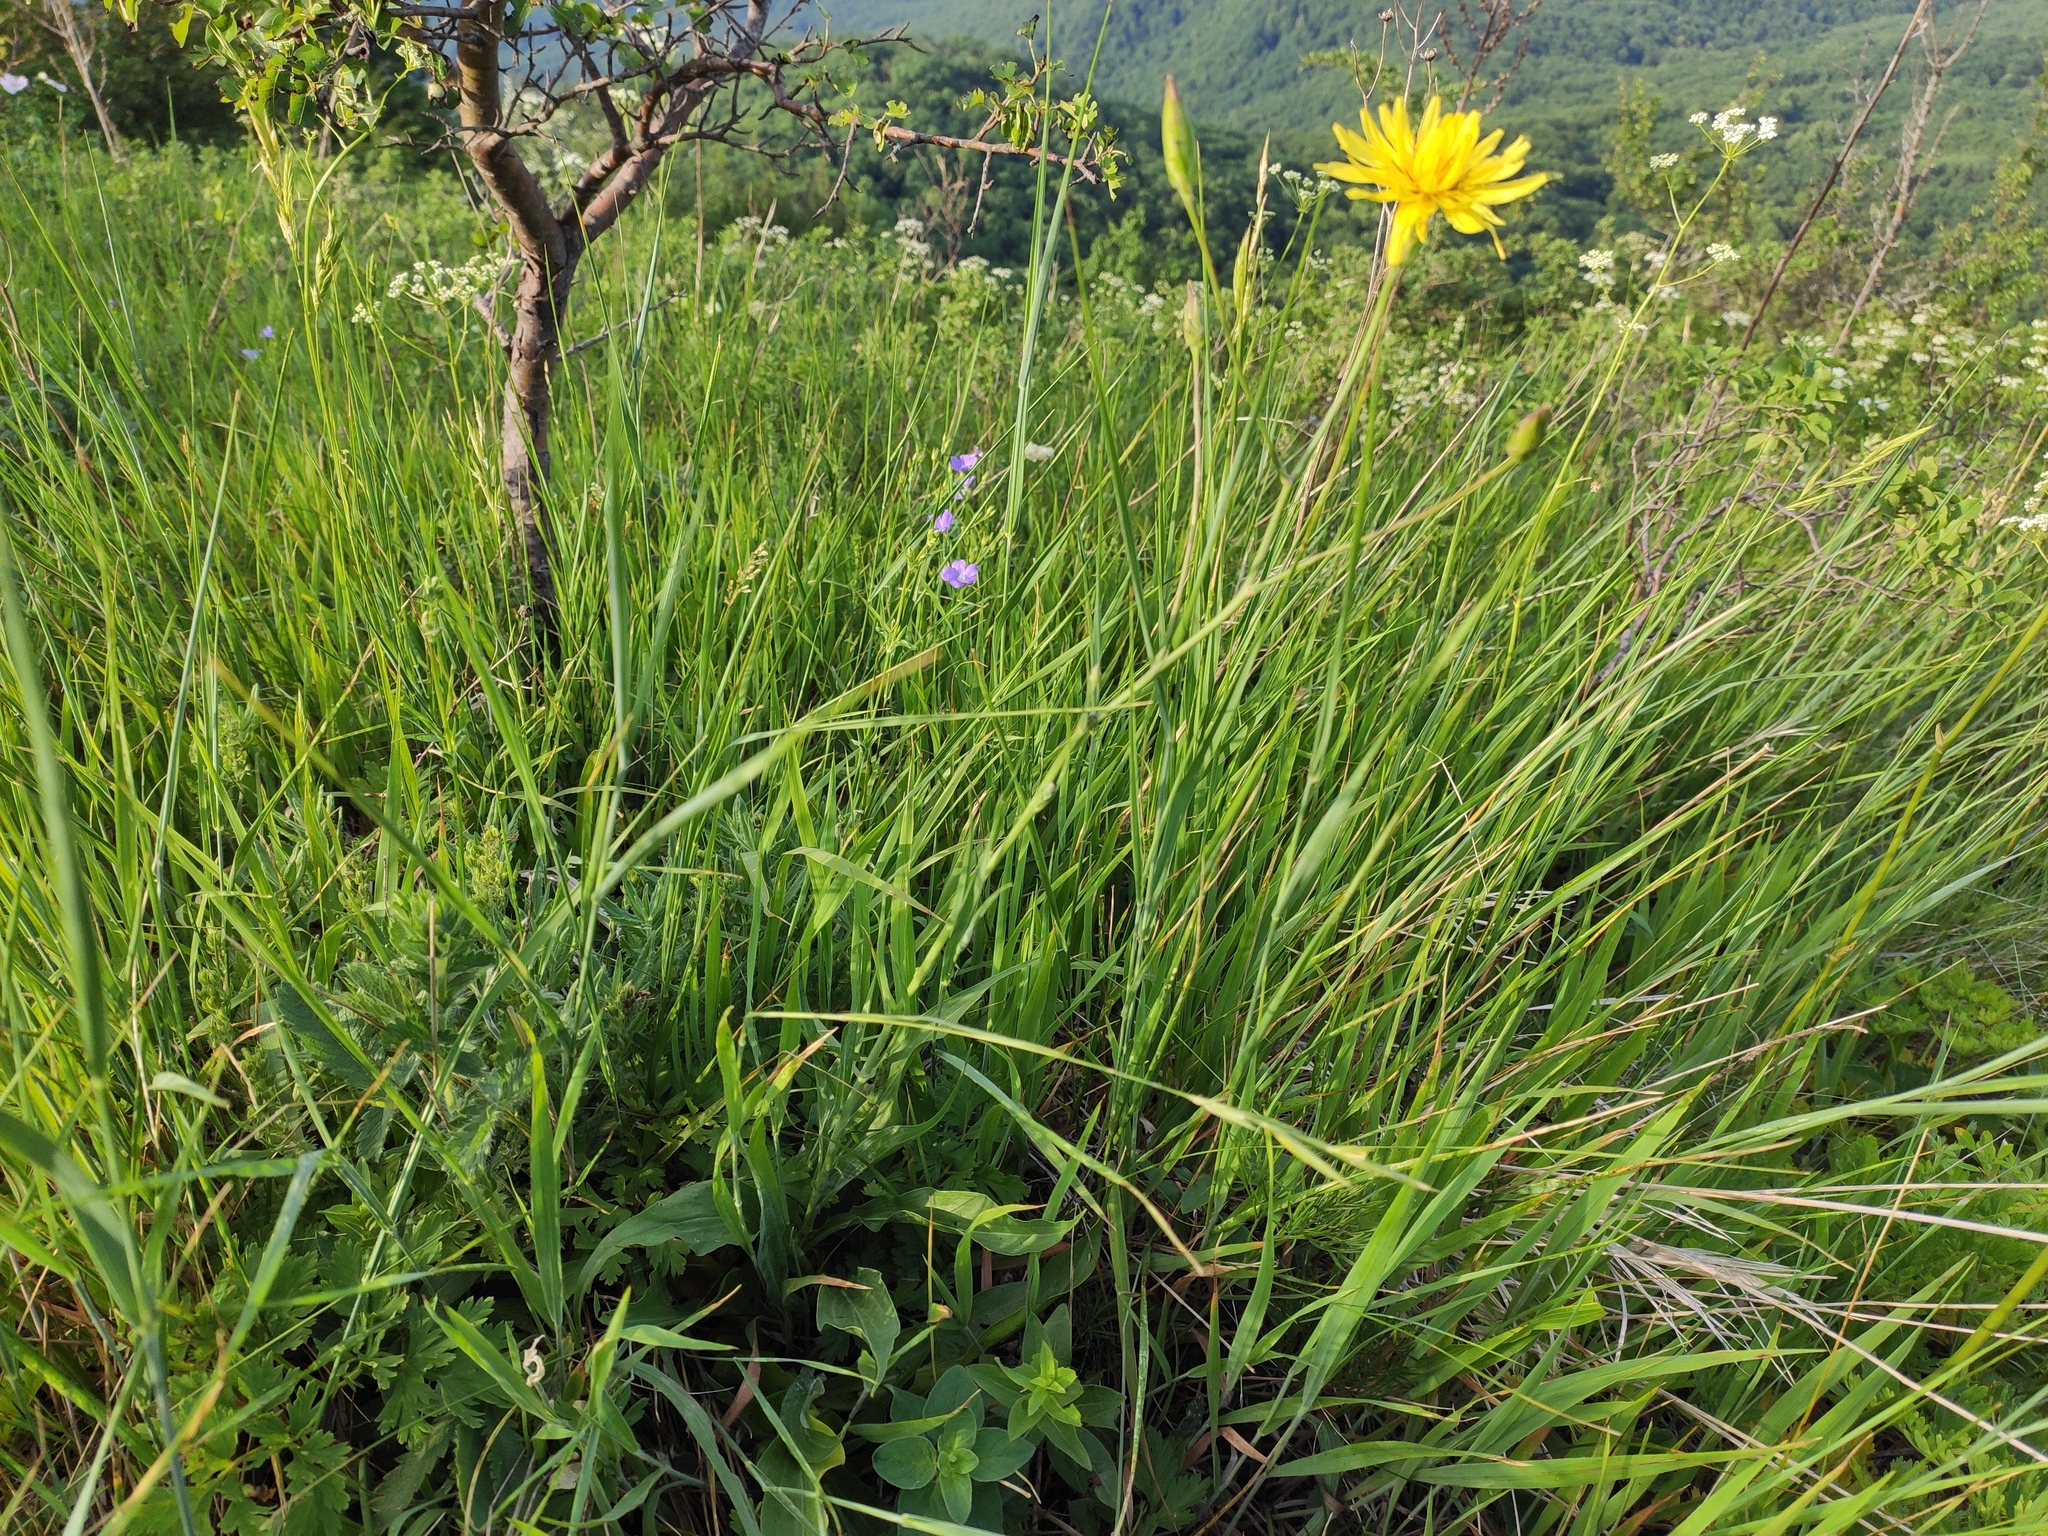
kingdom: Plantae
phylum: Tracheophyta
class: Magnoliopsida
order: Asterales
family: Asteraceae
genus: Pseudopodospermum
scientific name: Pseudopodospermum hispanicum
